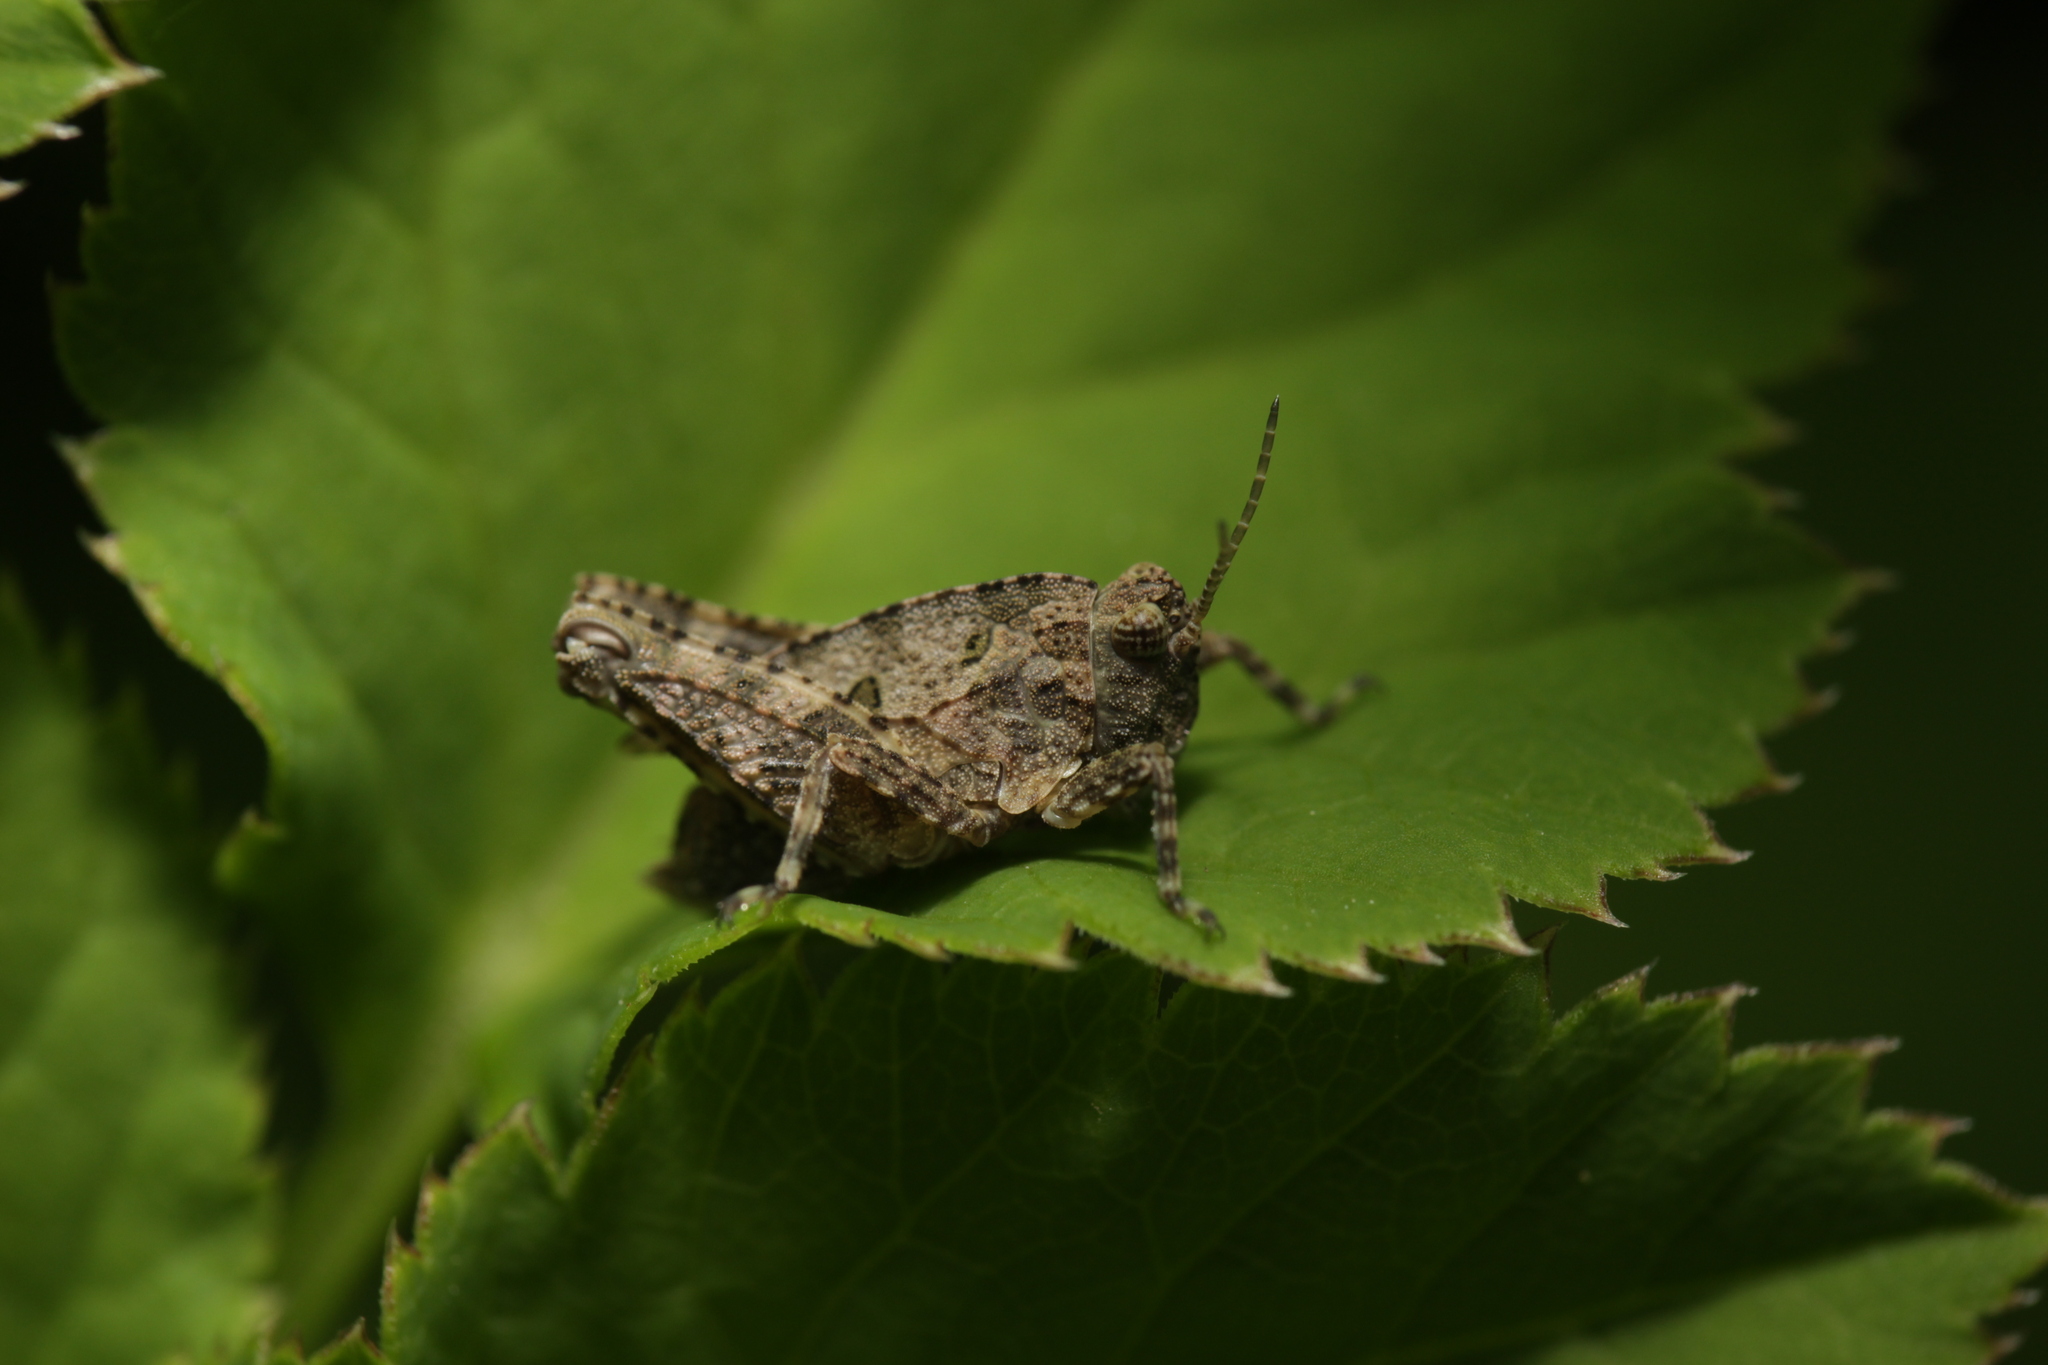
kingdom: Animalia
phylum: Arthropoda
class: Insecta
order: Orthoptera
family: Tetrigidae
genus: Tetrix
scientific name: Tetrix tenuicornis
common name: Long-horned groundhopper
